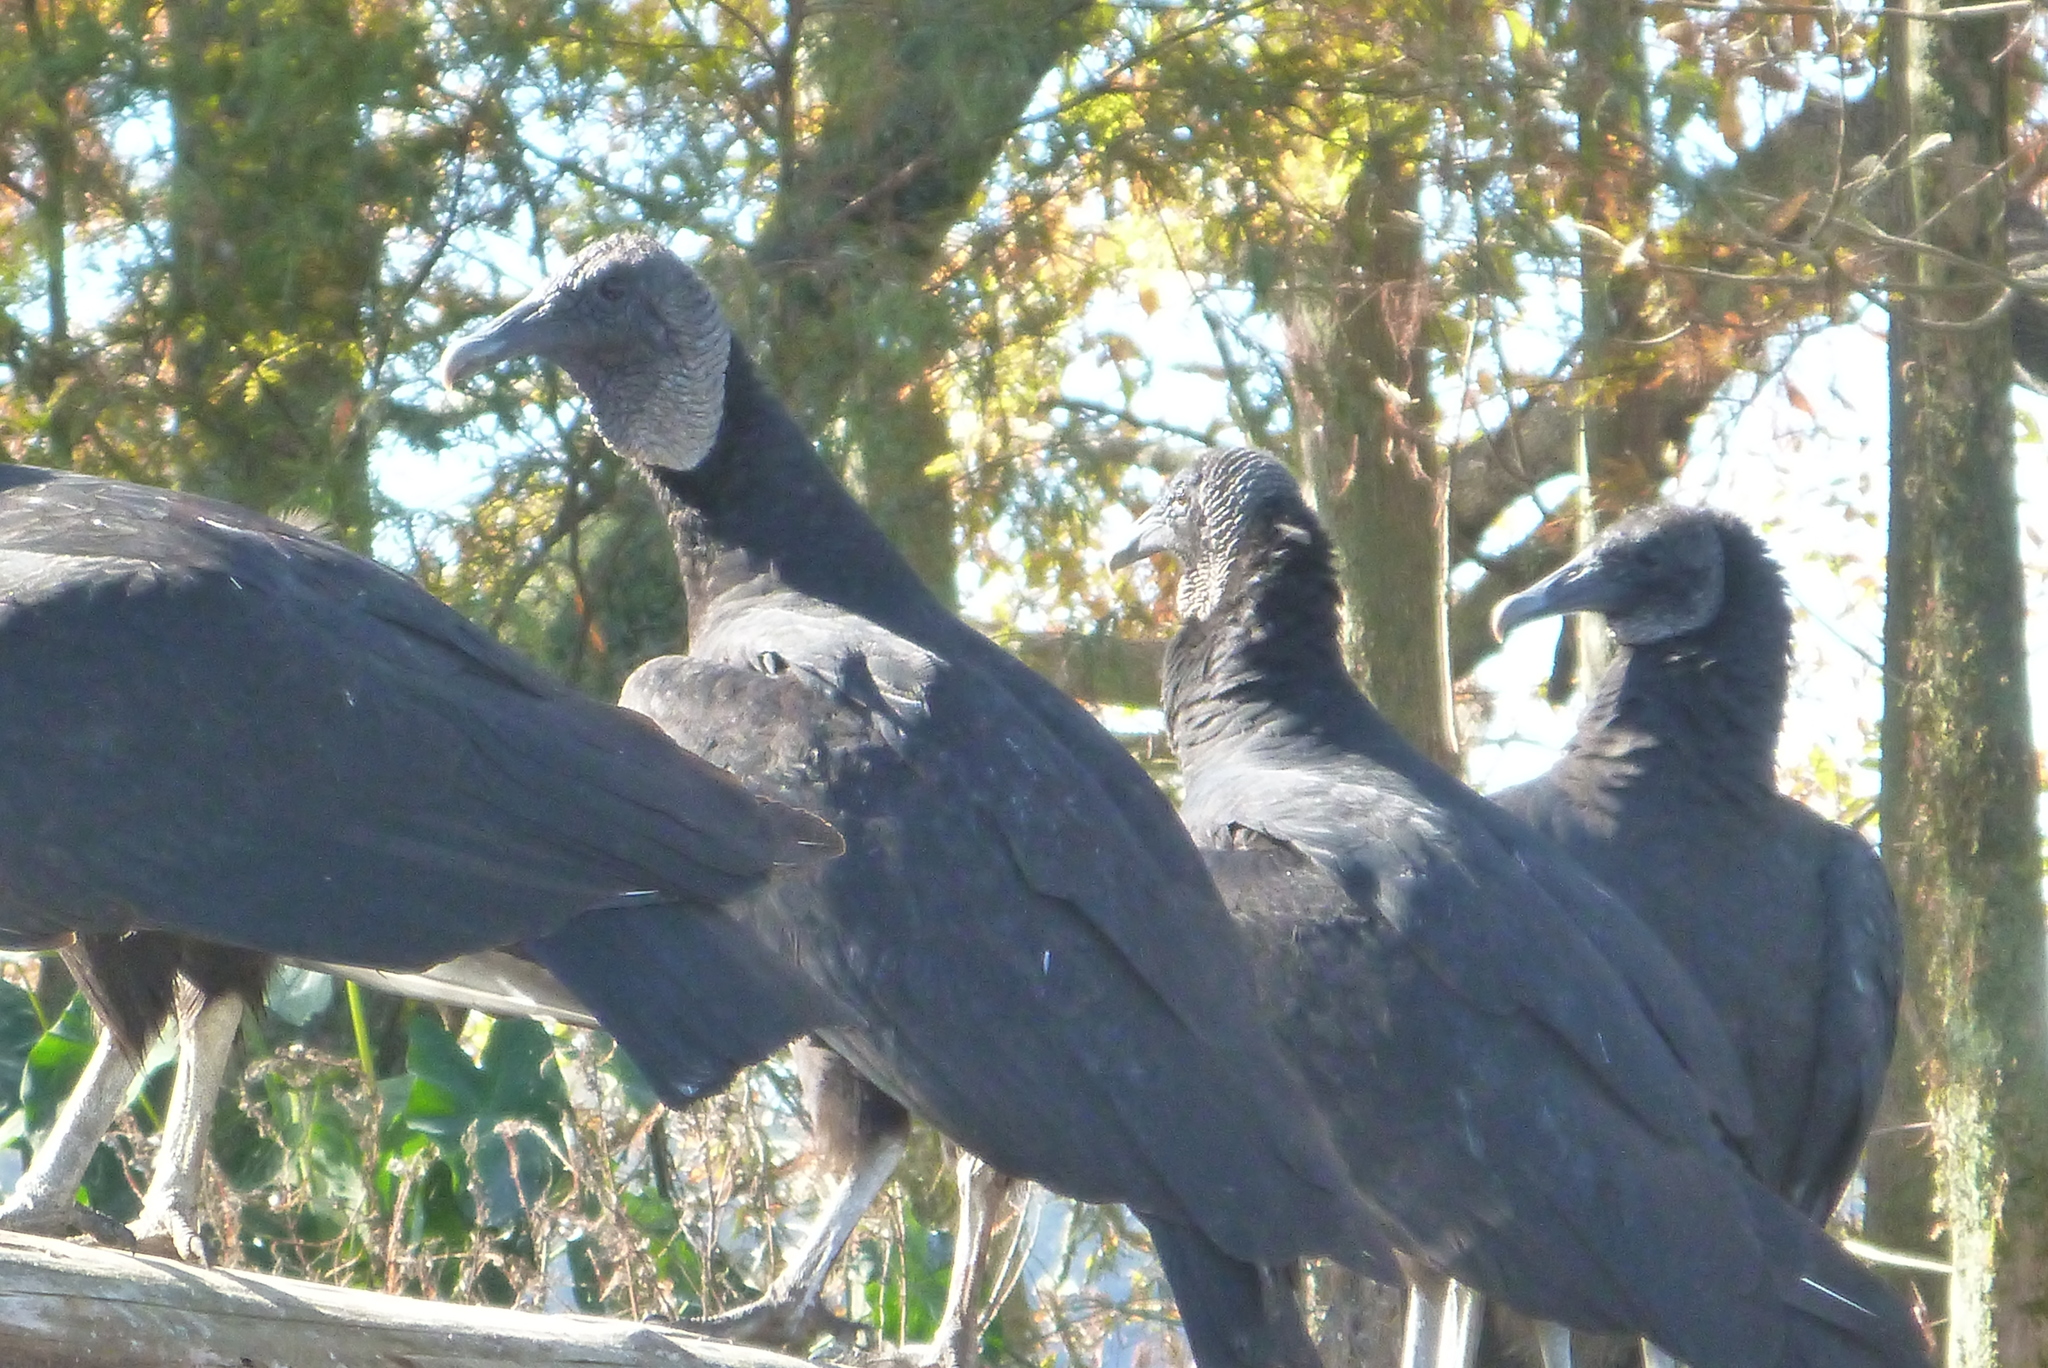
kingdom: Animalia
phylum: Chordata
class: Aves
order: Accipitriformes
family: Cathartidae
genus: Coragyps
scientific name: Coragyps atratus
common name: Black vulture
